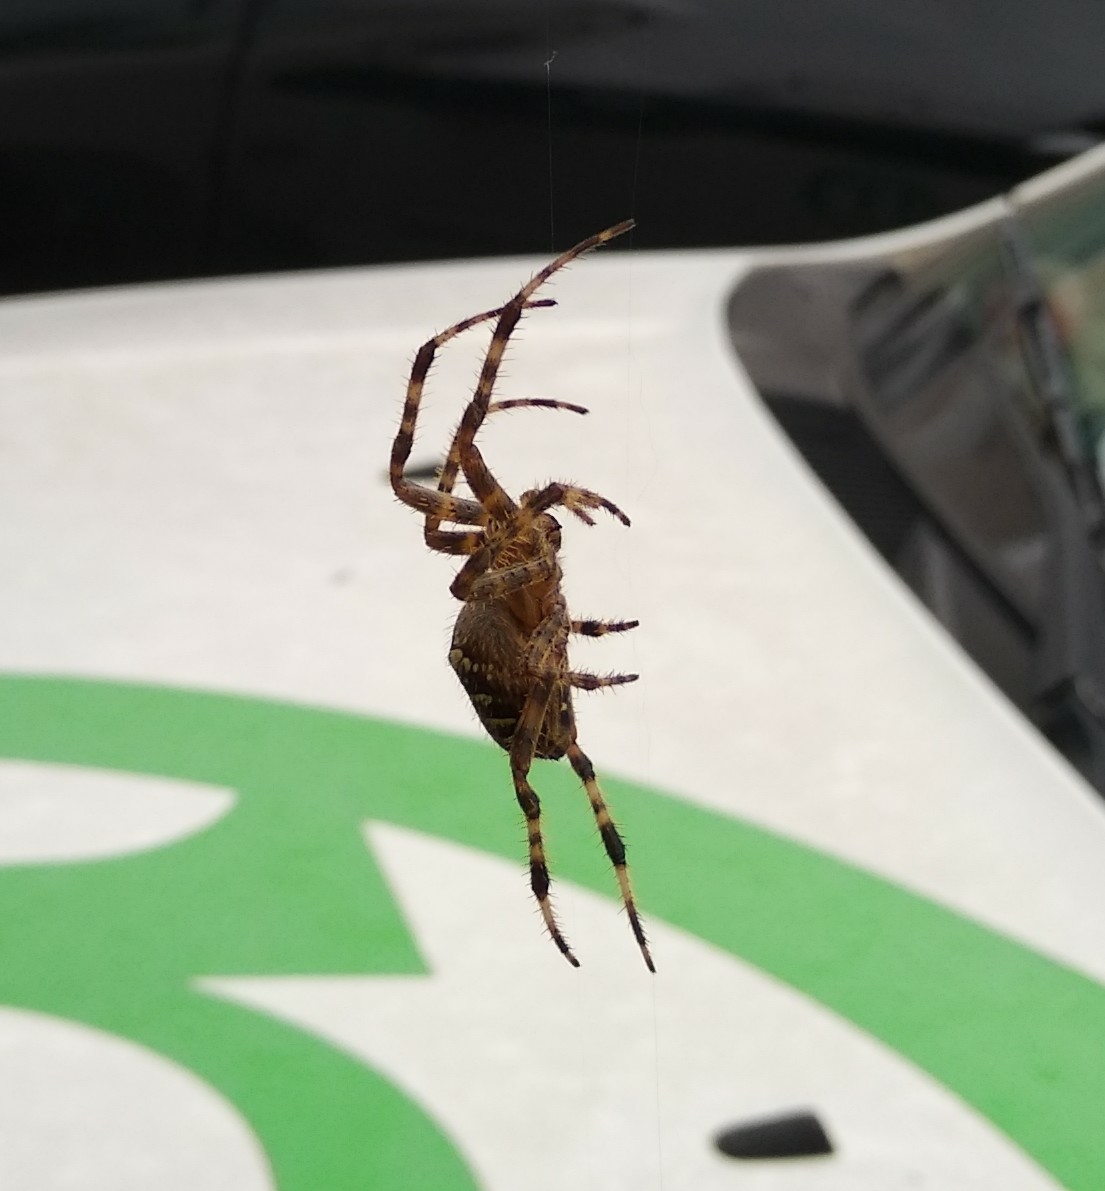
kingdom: Animalia
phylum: Arthropoda
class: Arachnida
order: Araneae
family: Araneidae
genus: Araneus
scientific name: Araneus diadematus
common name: Cross orbweaver
